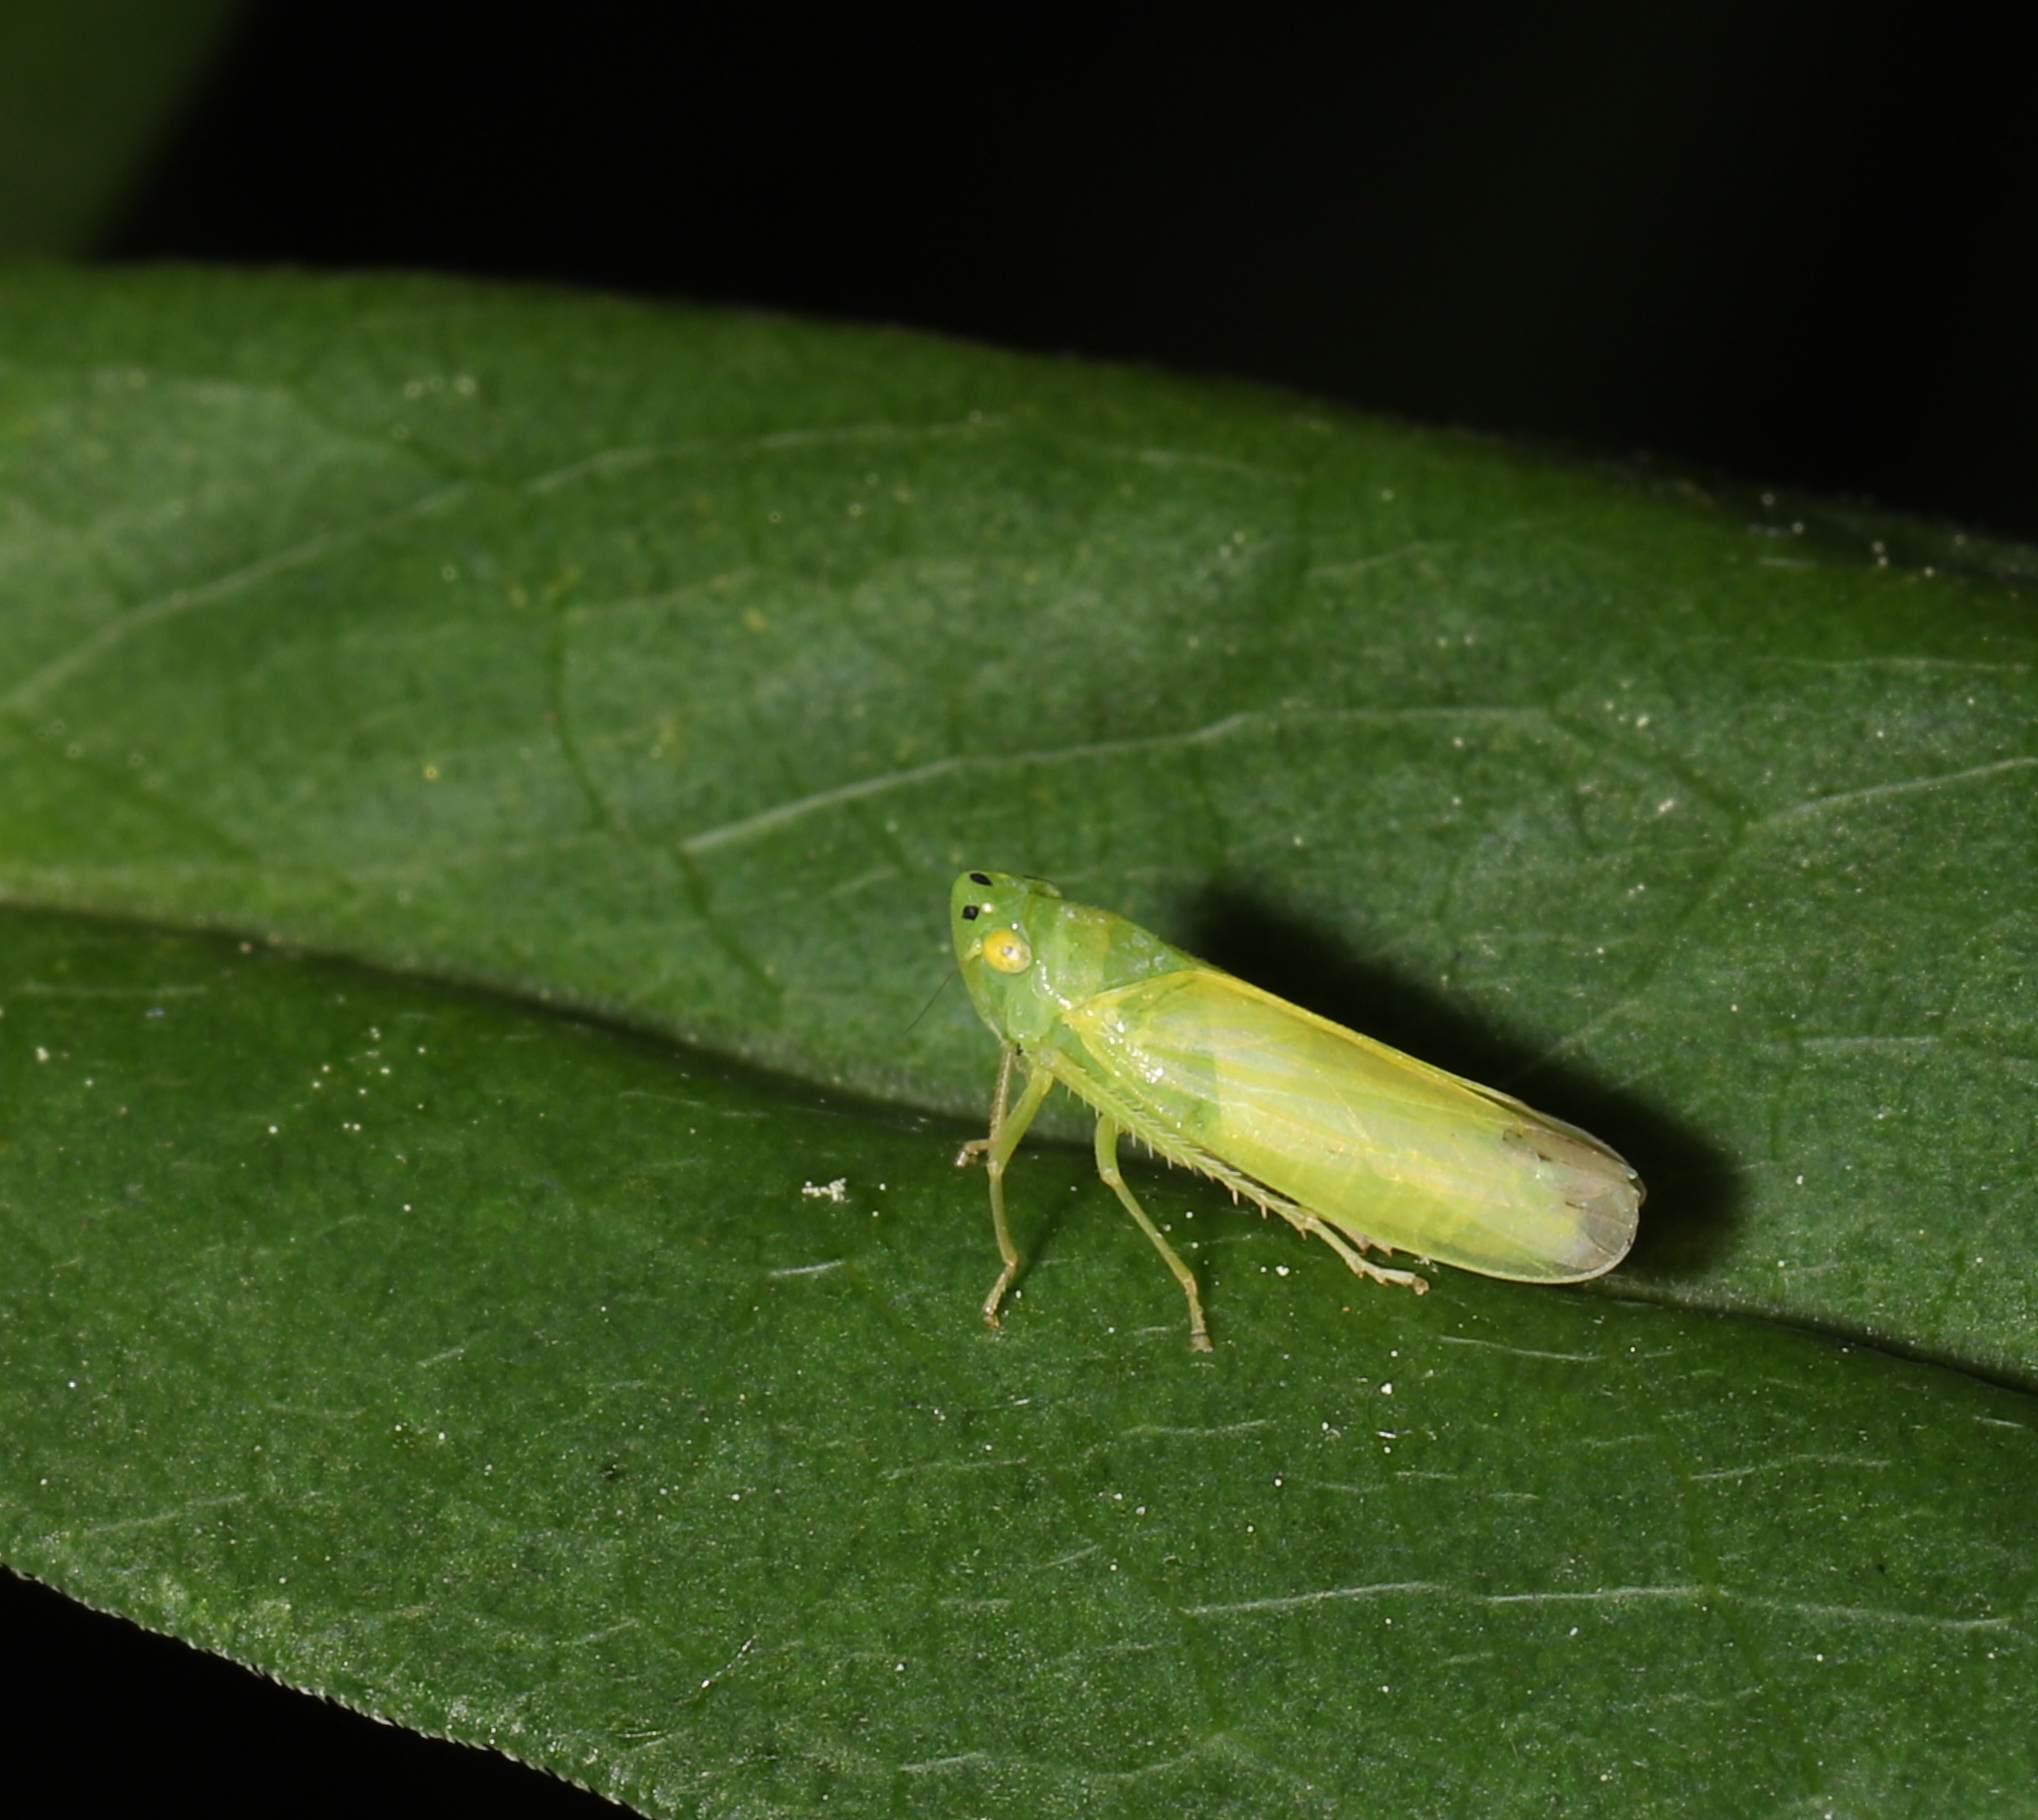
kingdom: Animalia
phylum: Arthropoda
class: Insecta
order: Hemiptera
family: Cicadellidae
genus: Pagaronia
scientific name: Pagaronia minor
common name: Leafhopper
